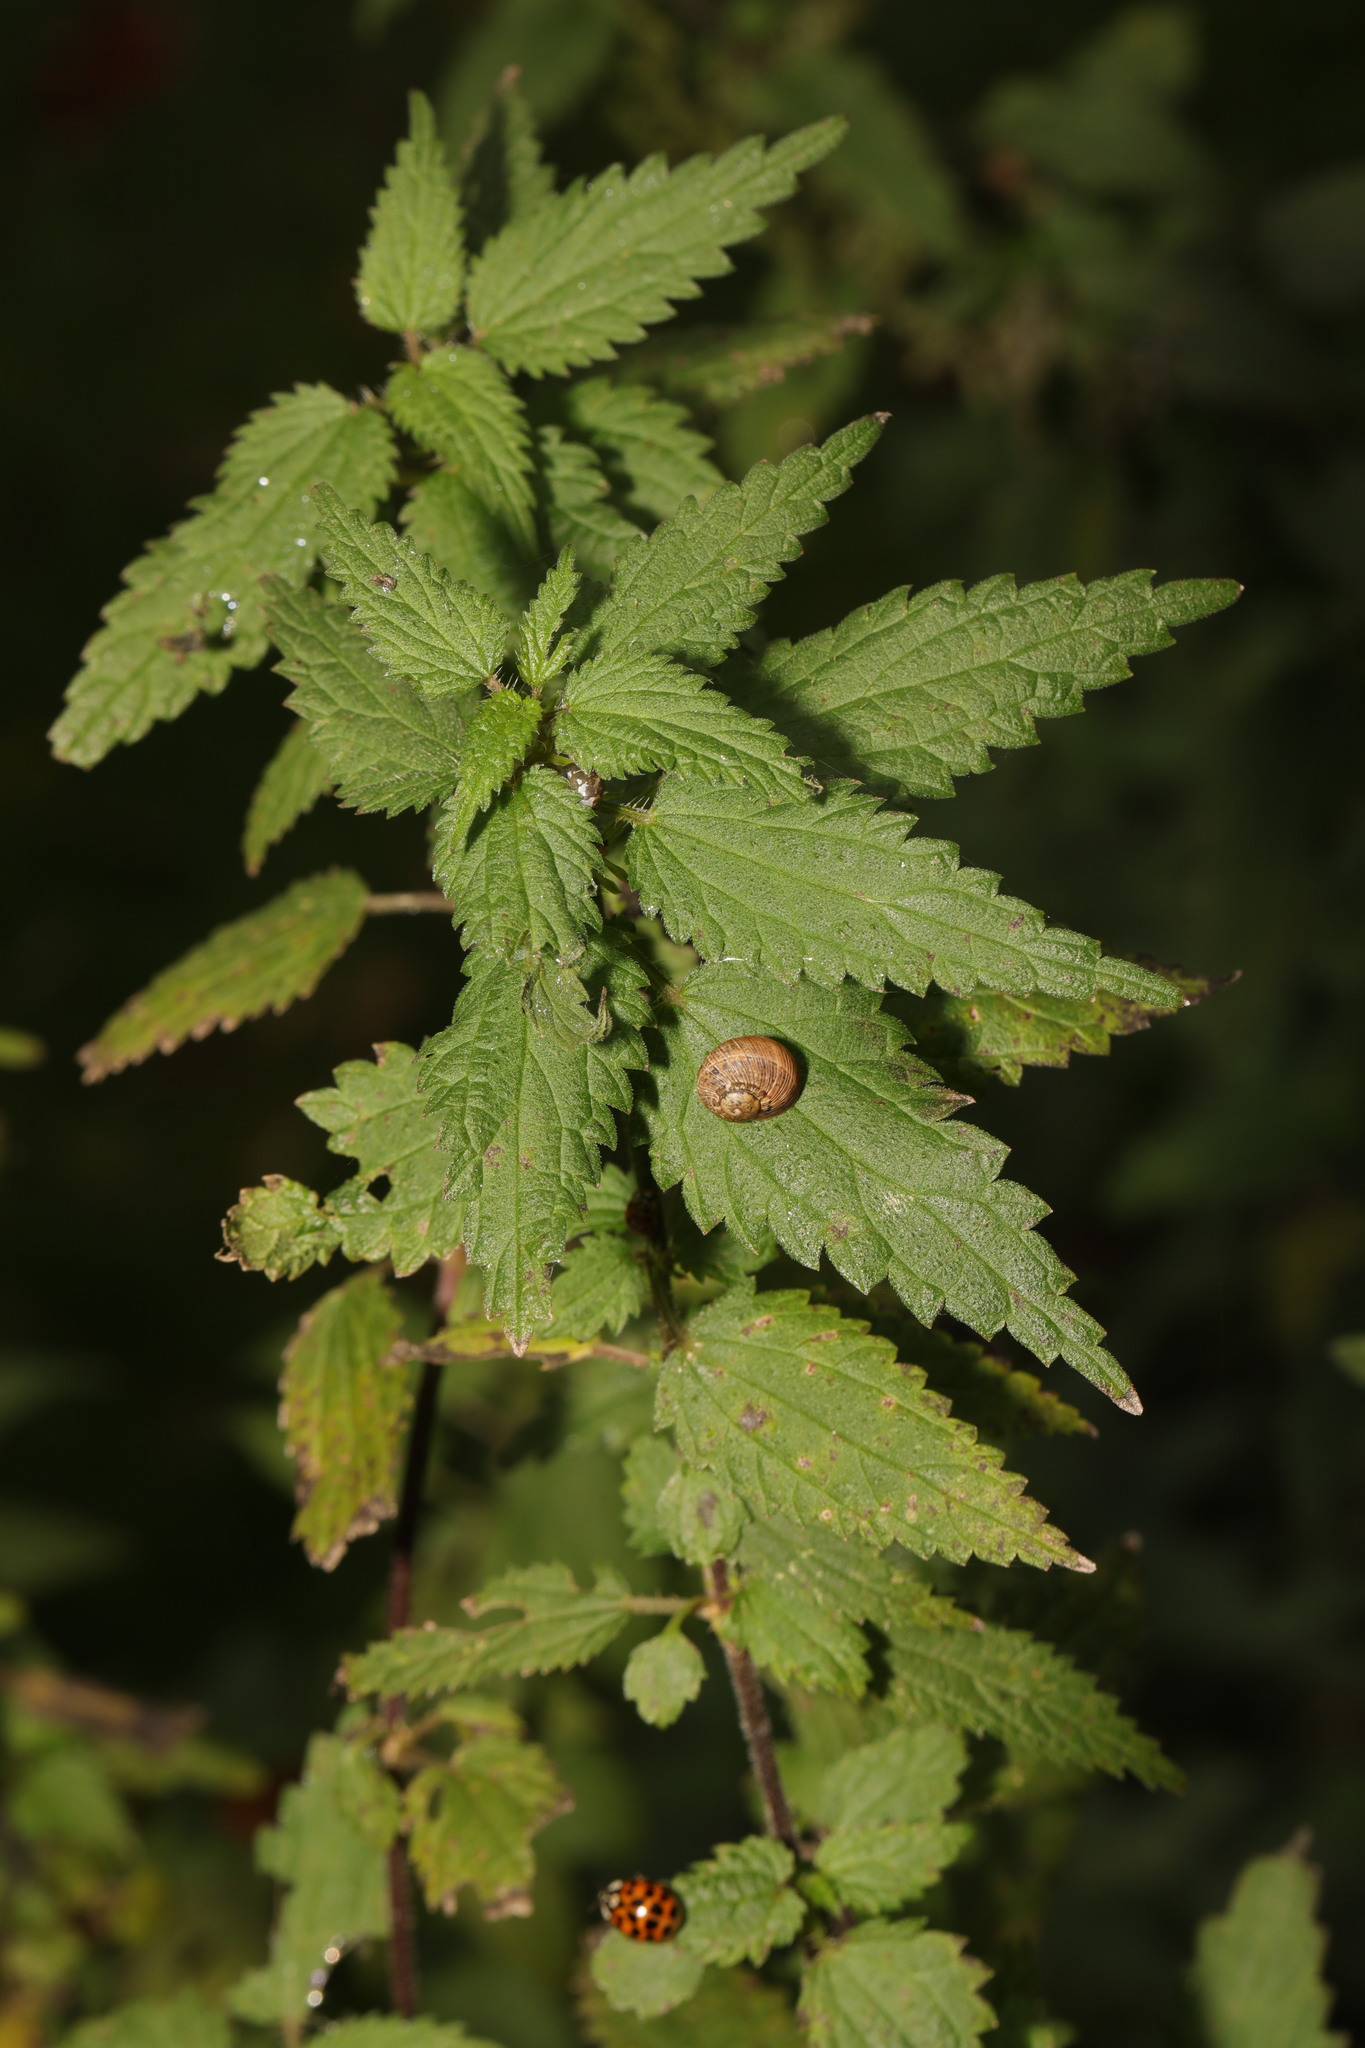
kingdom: Plantae
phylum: Tracheophyta
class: Magnoliopsida
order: Rosales
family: Urticaceae
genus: Urtica
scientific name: Urtica dioica
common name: Common nettle
